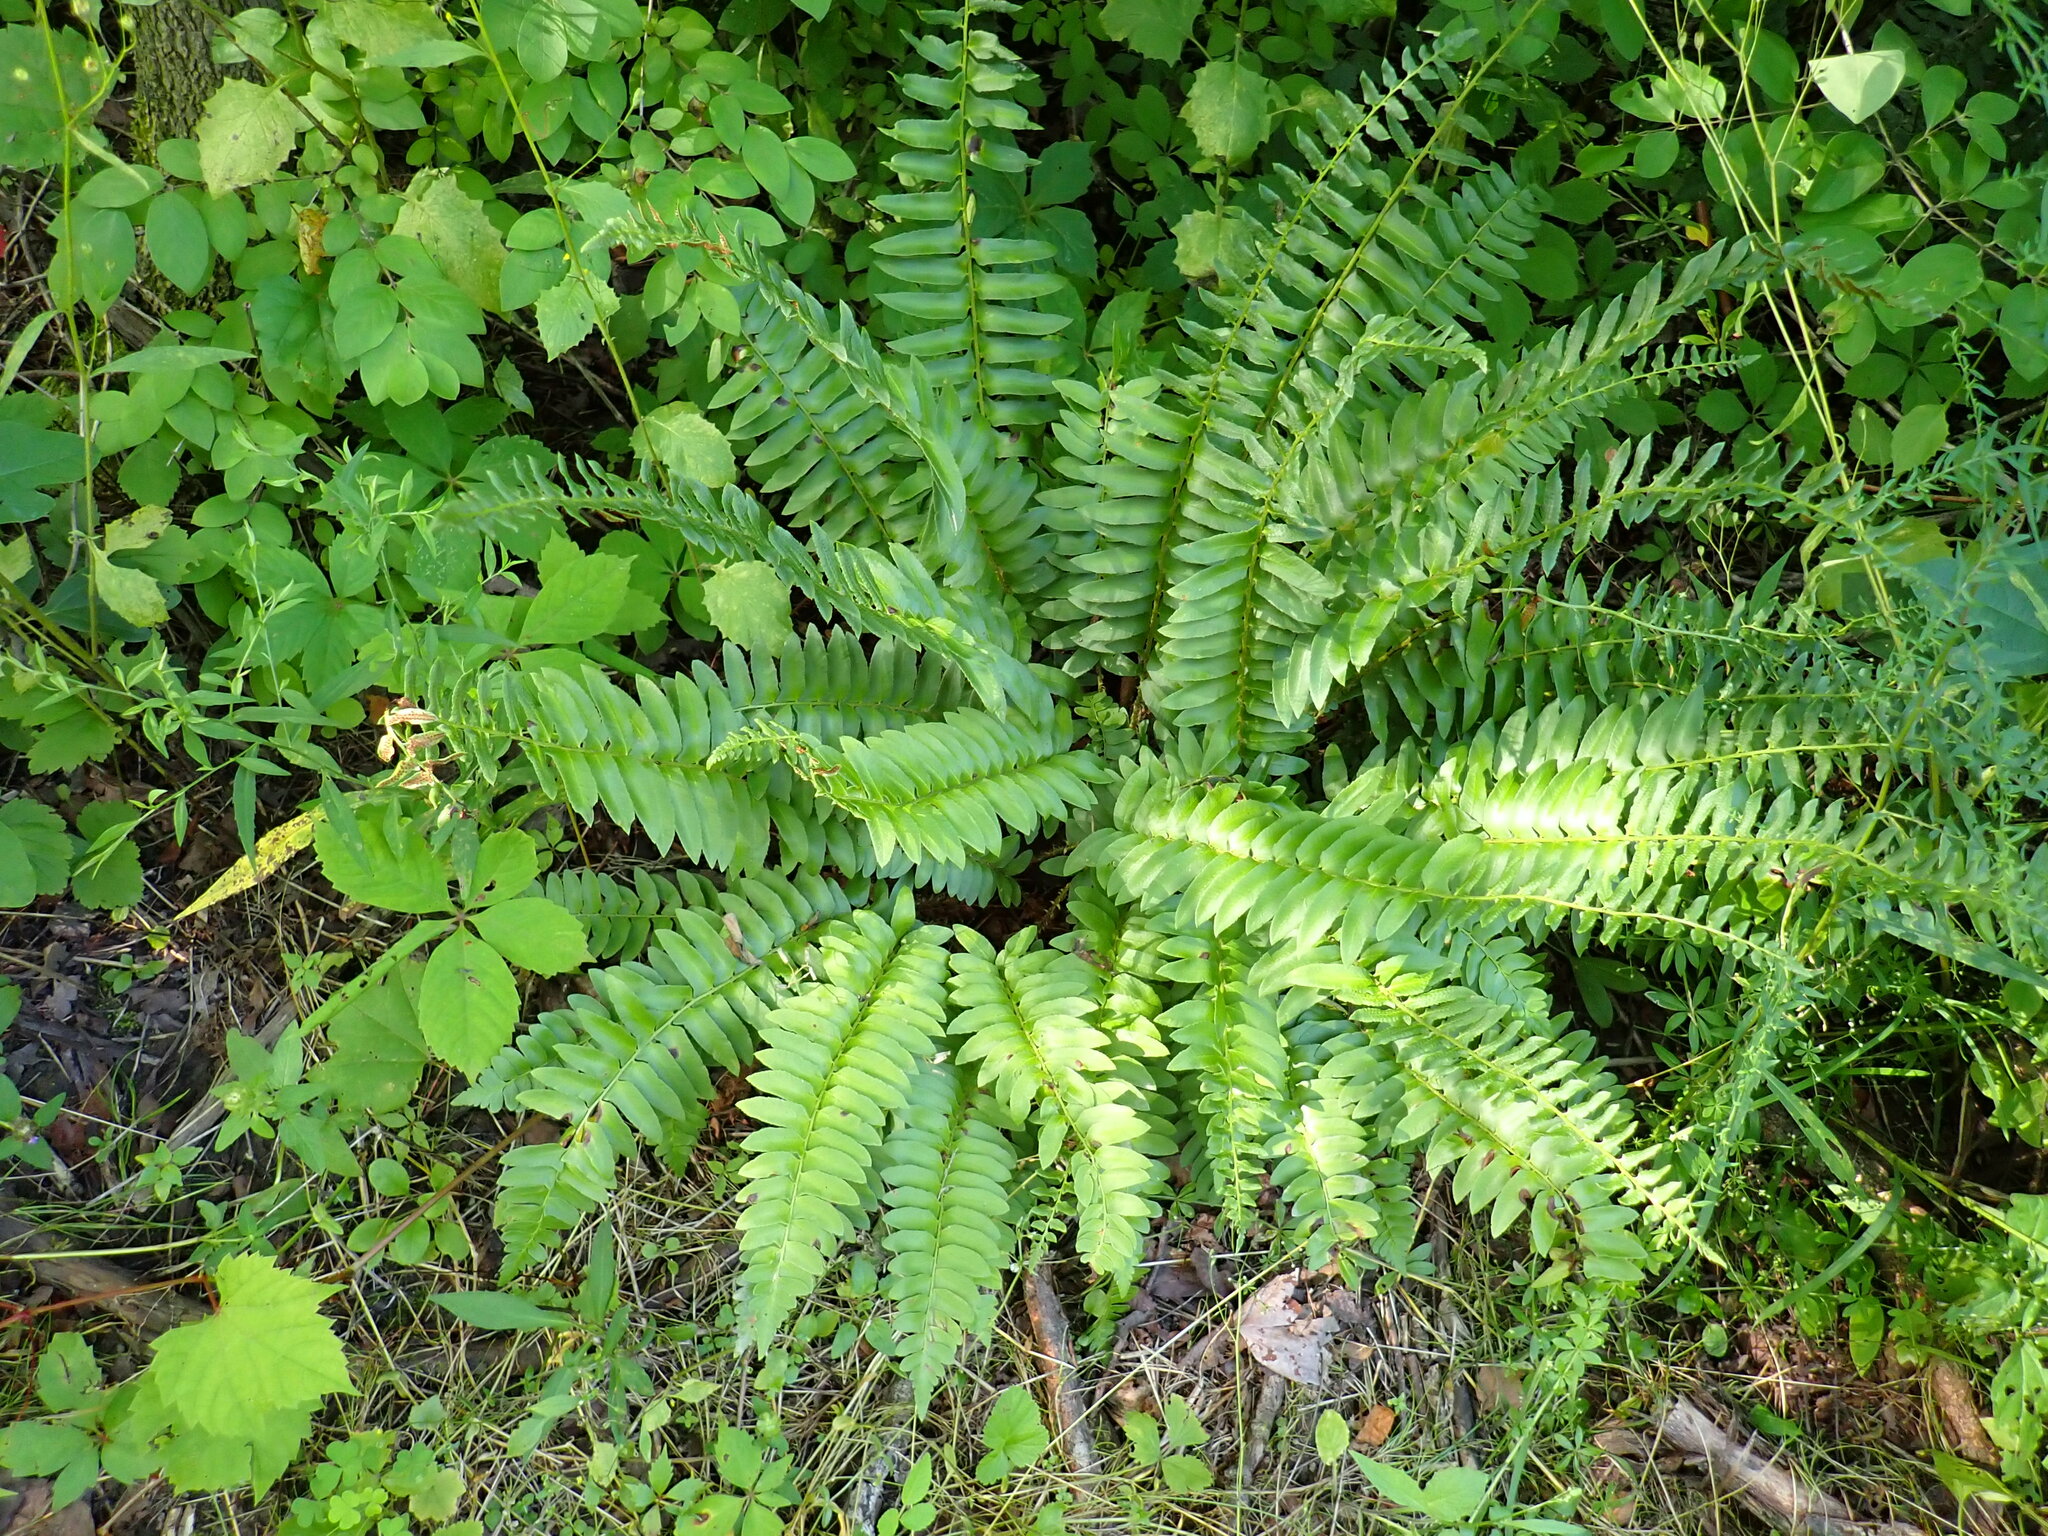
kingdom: Plantae
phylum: Tracheophyta
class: Polypodiopsida
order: Polypodiales
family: Dryopteridaceae
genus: Polystichum
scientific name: Polystichum acrostichoides
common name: Christmas fern
